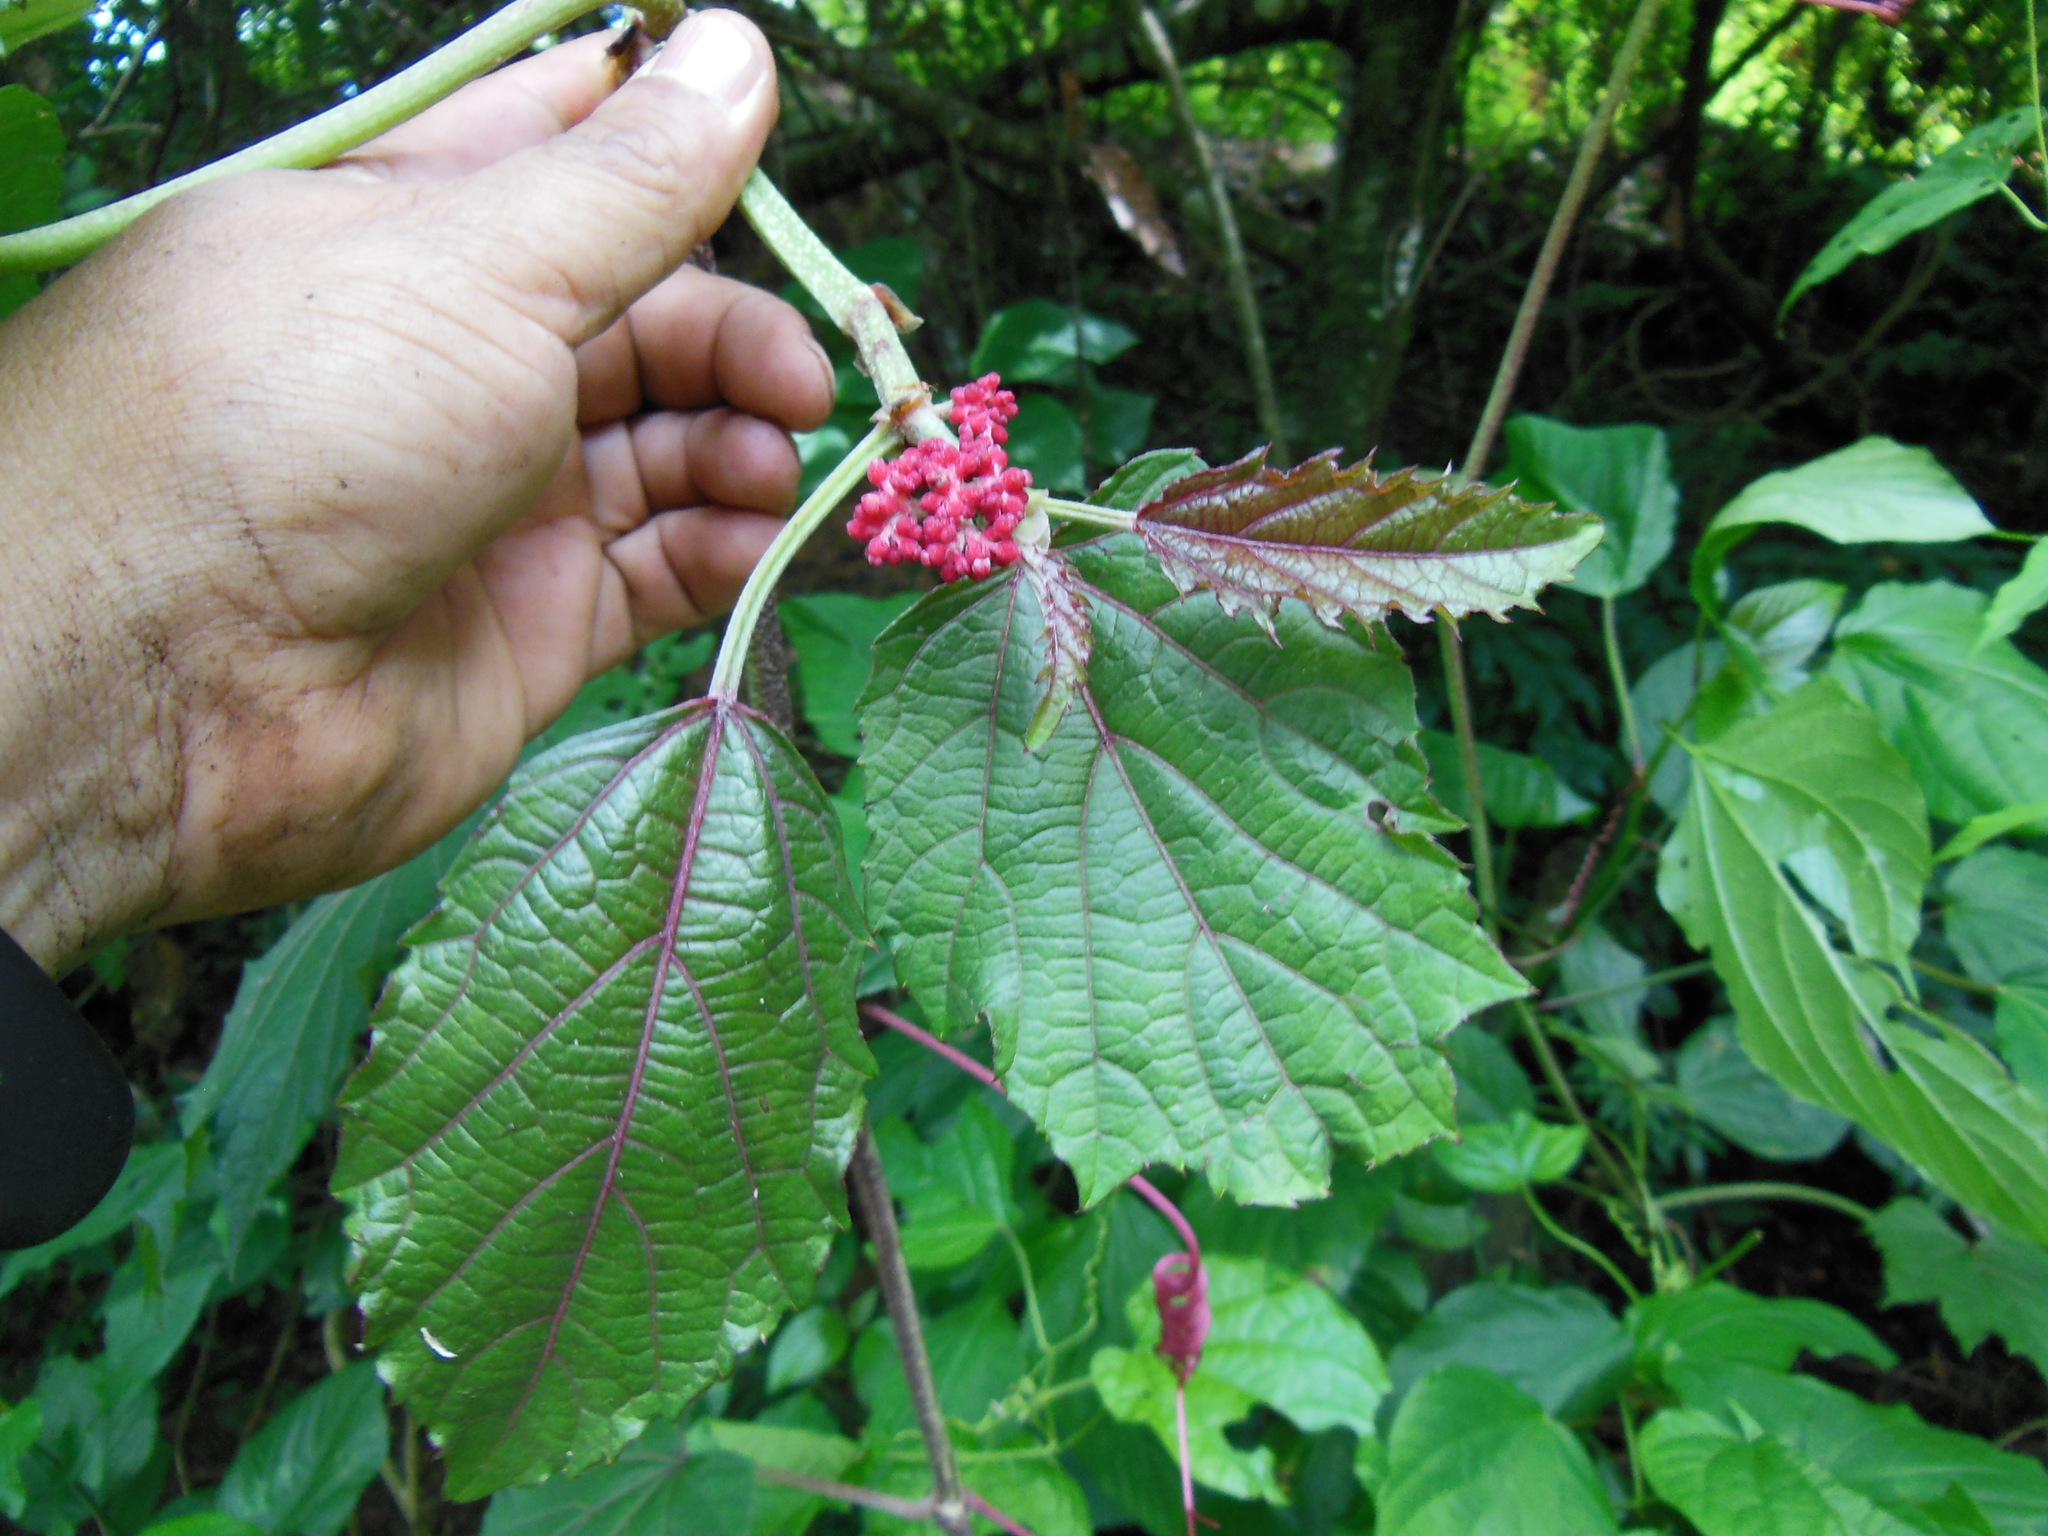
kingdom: Plantae
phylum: Tracheophyta
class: Magnoliopsida
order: Vitales
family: Vitaceae
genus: Cissus
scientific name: Cissus cacuminis
